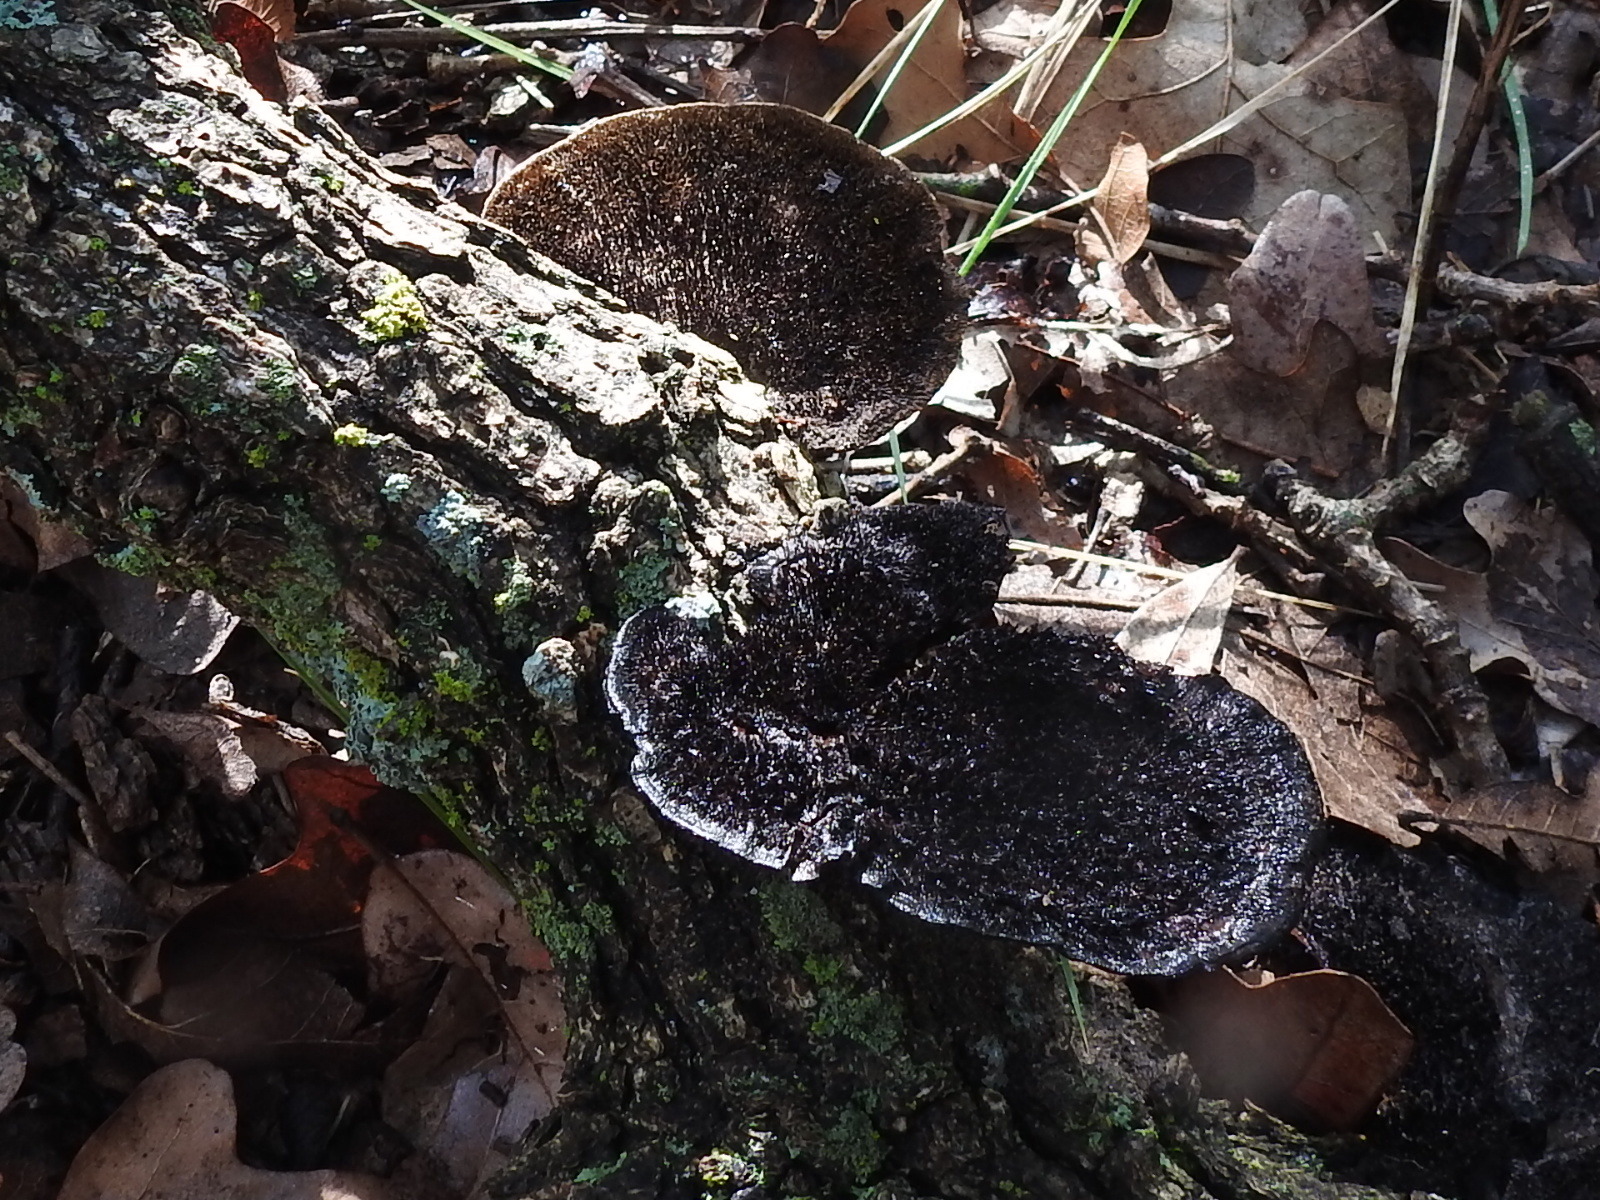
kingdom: Fungi
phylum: Basidiomycota
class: Agaricomycetes
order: Polyporales
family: Cerrenaceae
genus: Cerrena
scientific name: Cerrena hydnoides
